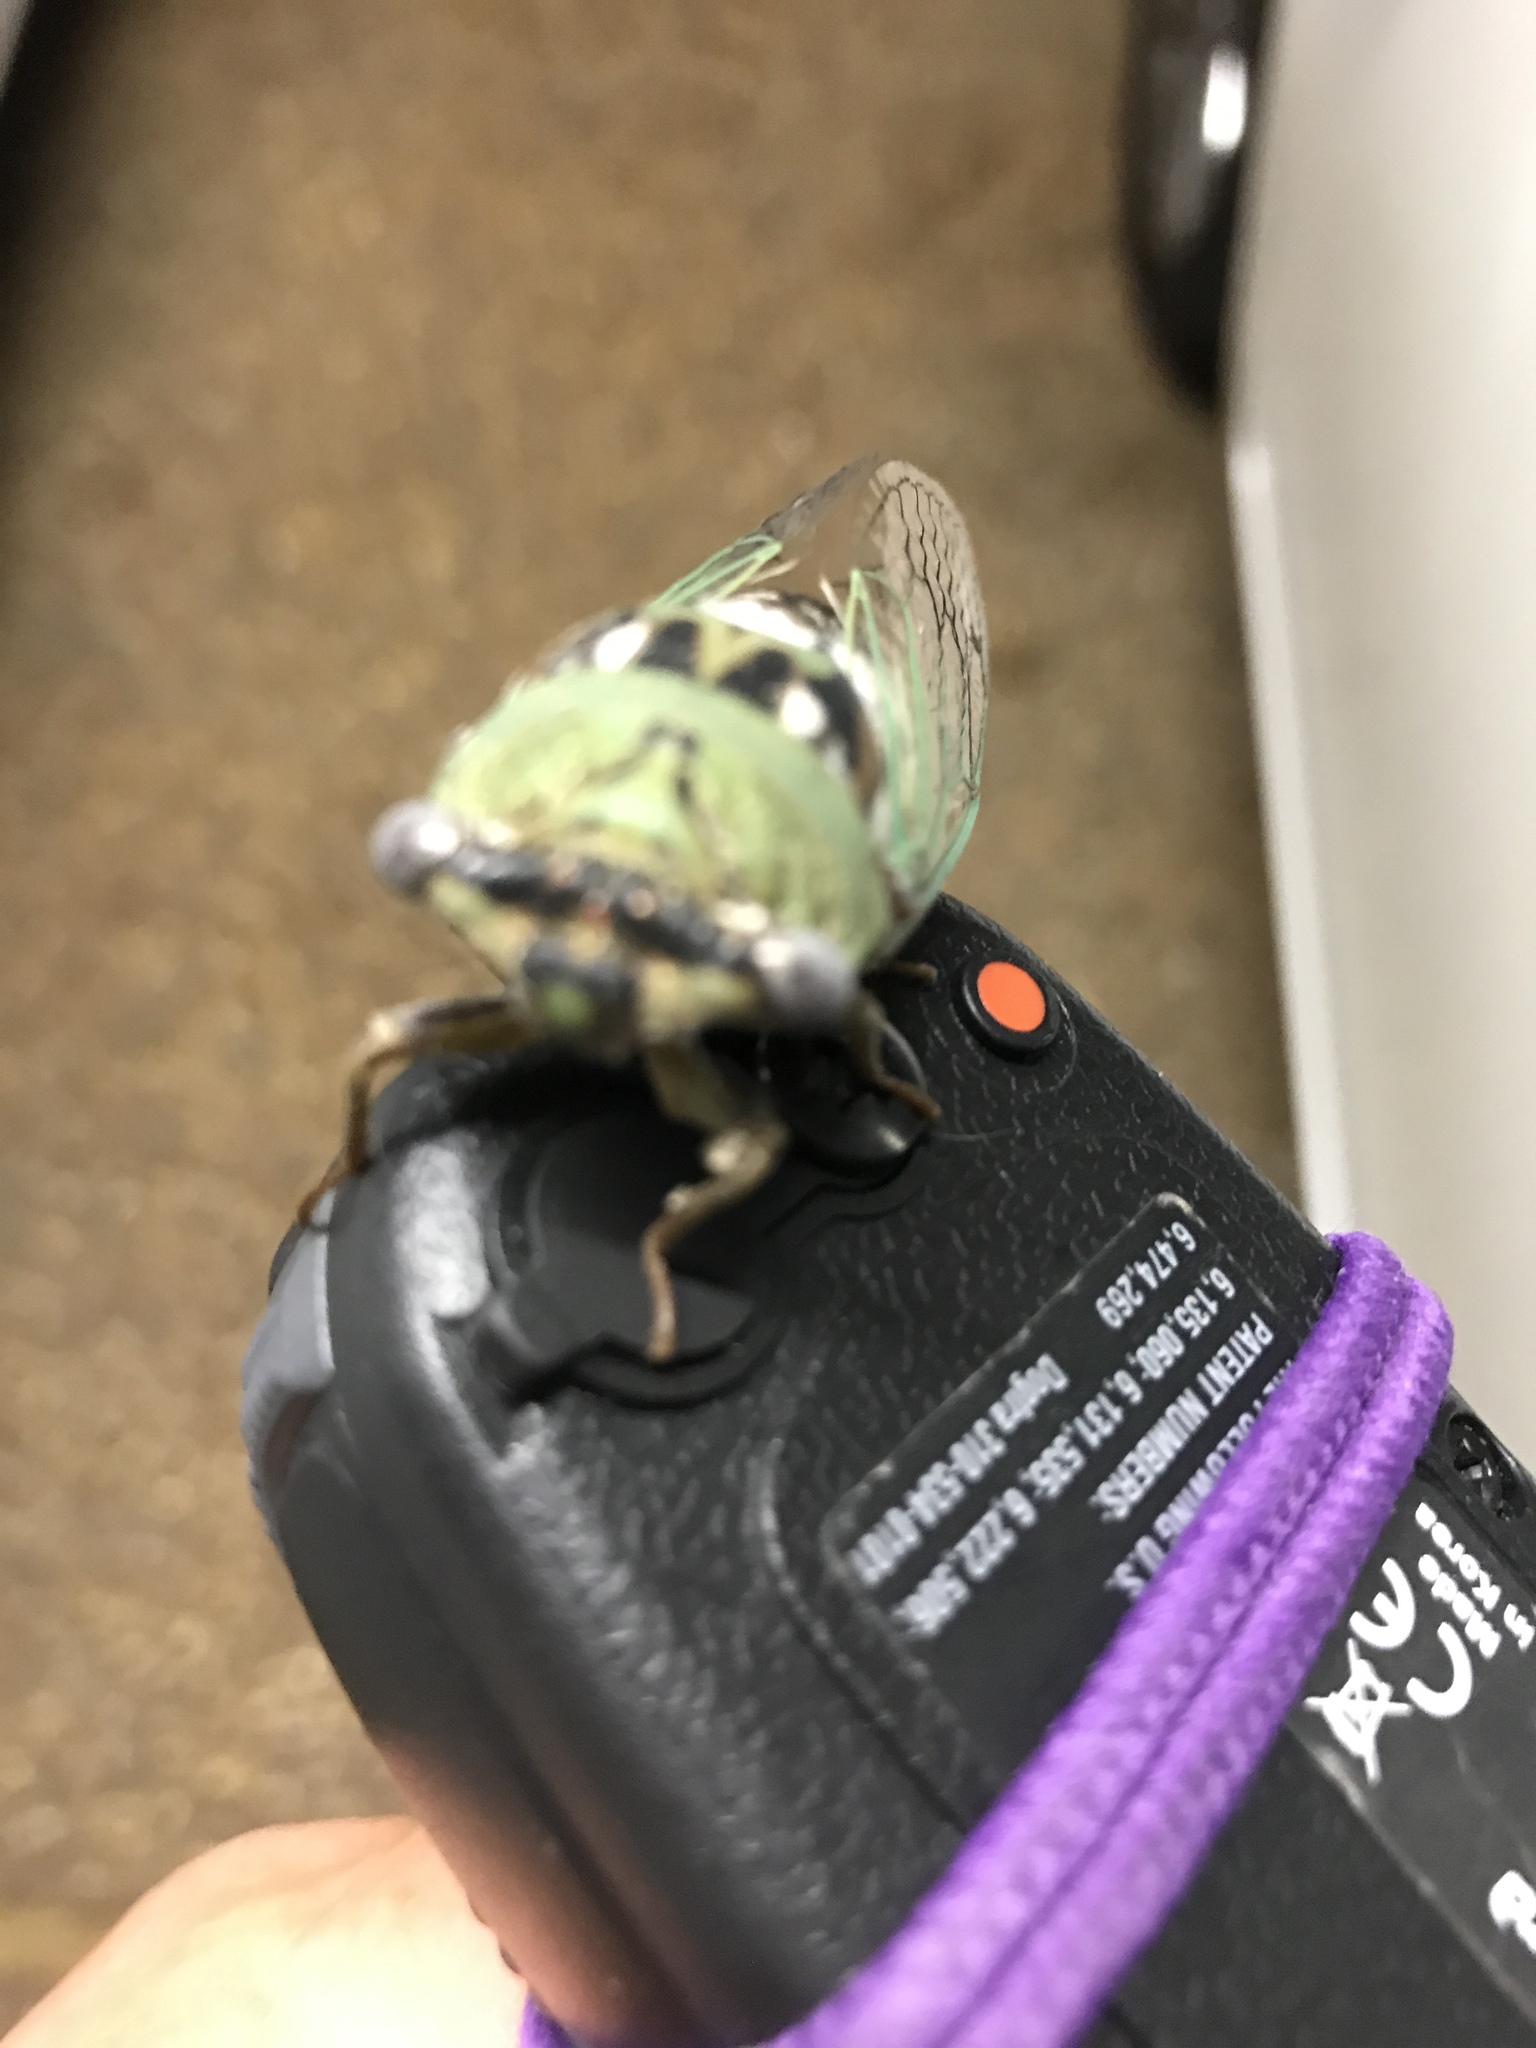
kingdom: Animalia
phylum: Arthropoda
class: Insecta
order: Hemiptera
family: Cicadidae
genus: Megatibicen
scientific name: Megatibicen resh
